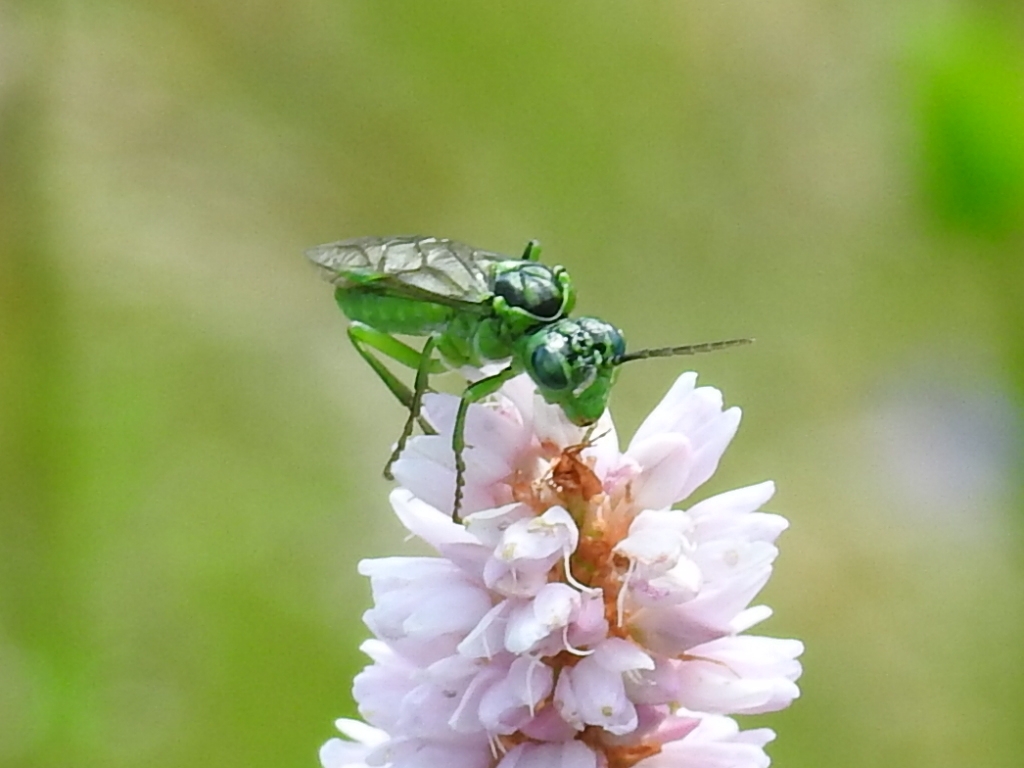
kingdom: Animalia
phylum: Arthropoda
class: Insecta
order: Hymenoptera
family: Tenthredinidae
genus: Tenthredo
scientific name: Tenthredo olivacea
